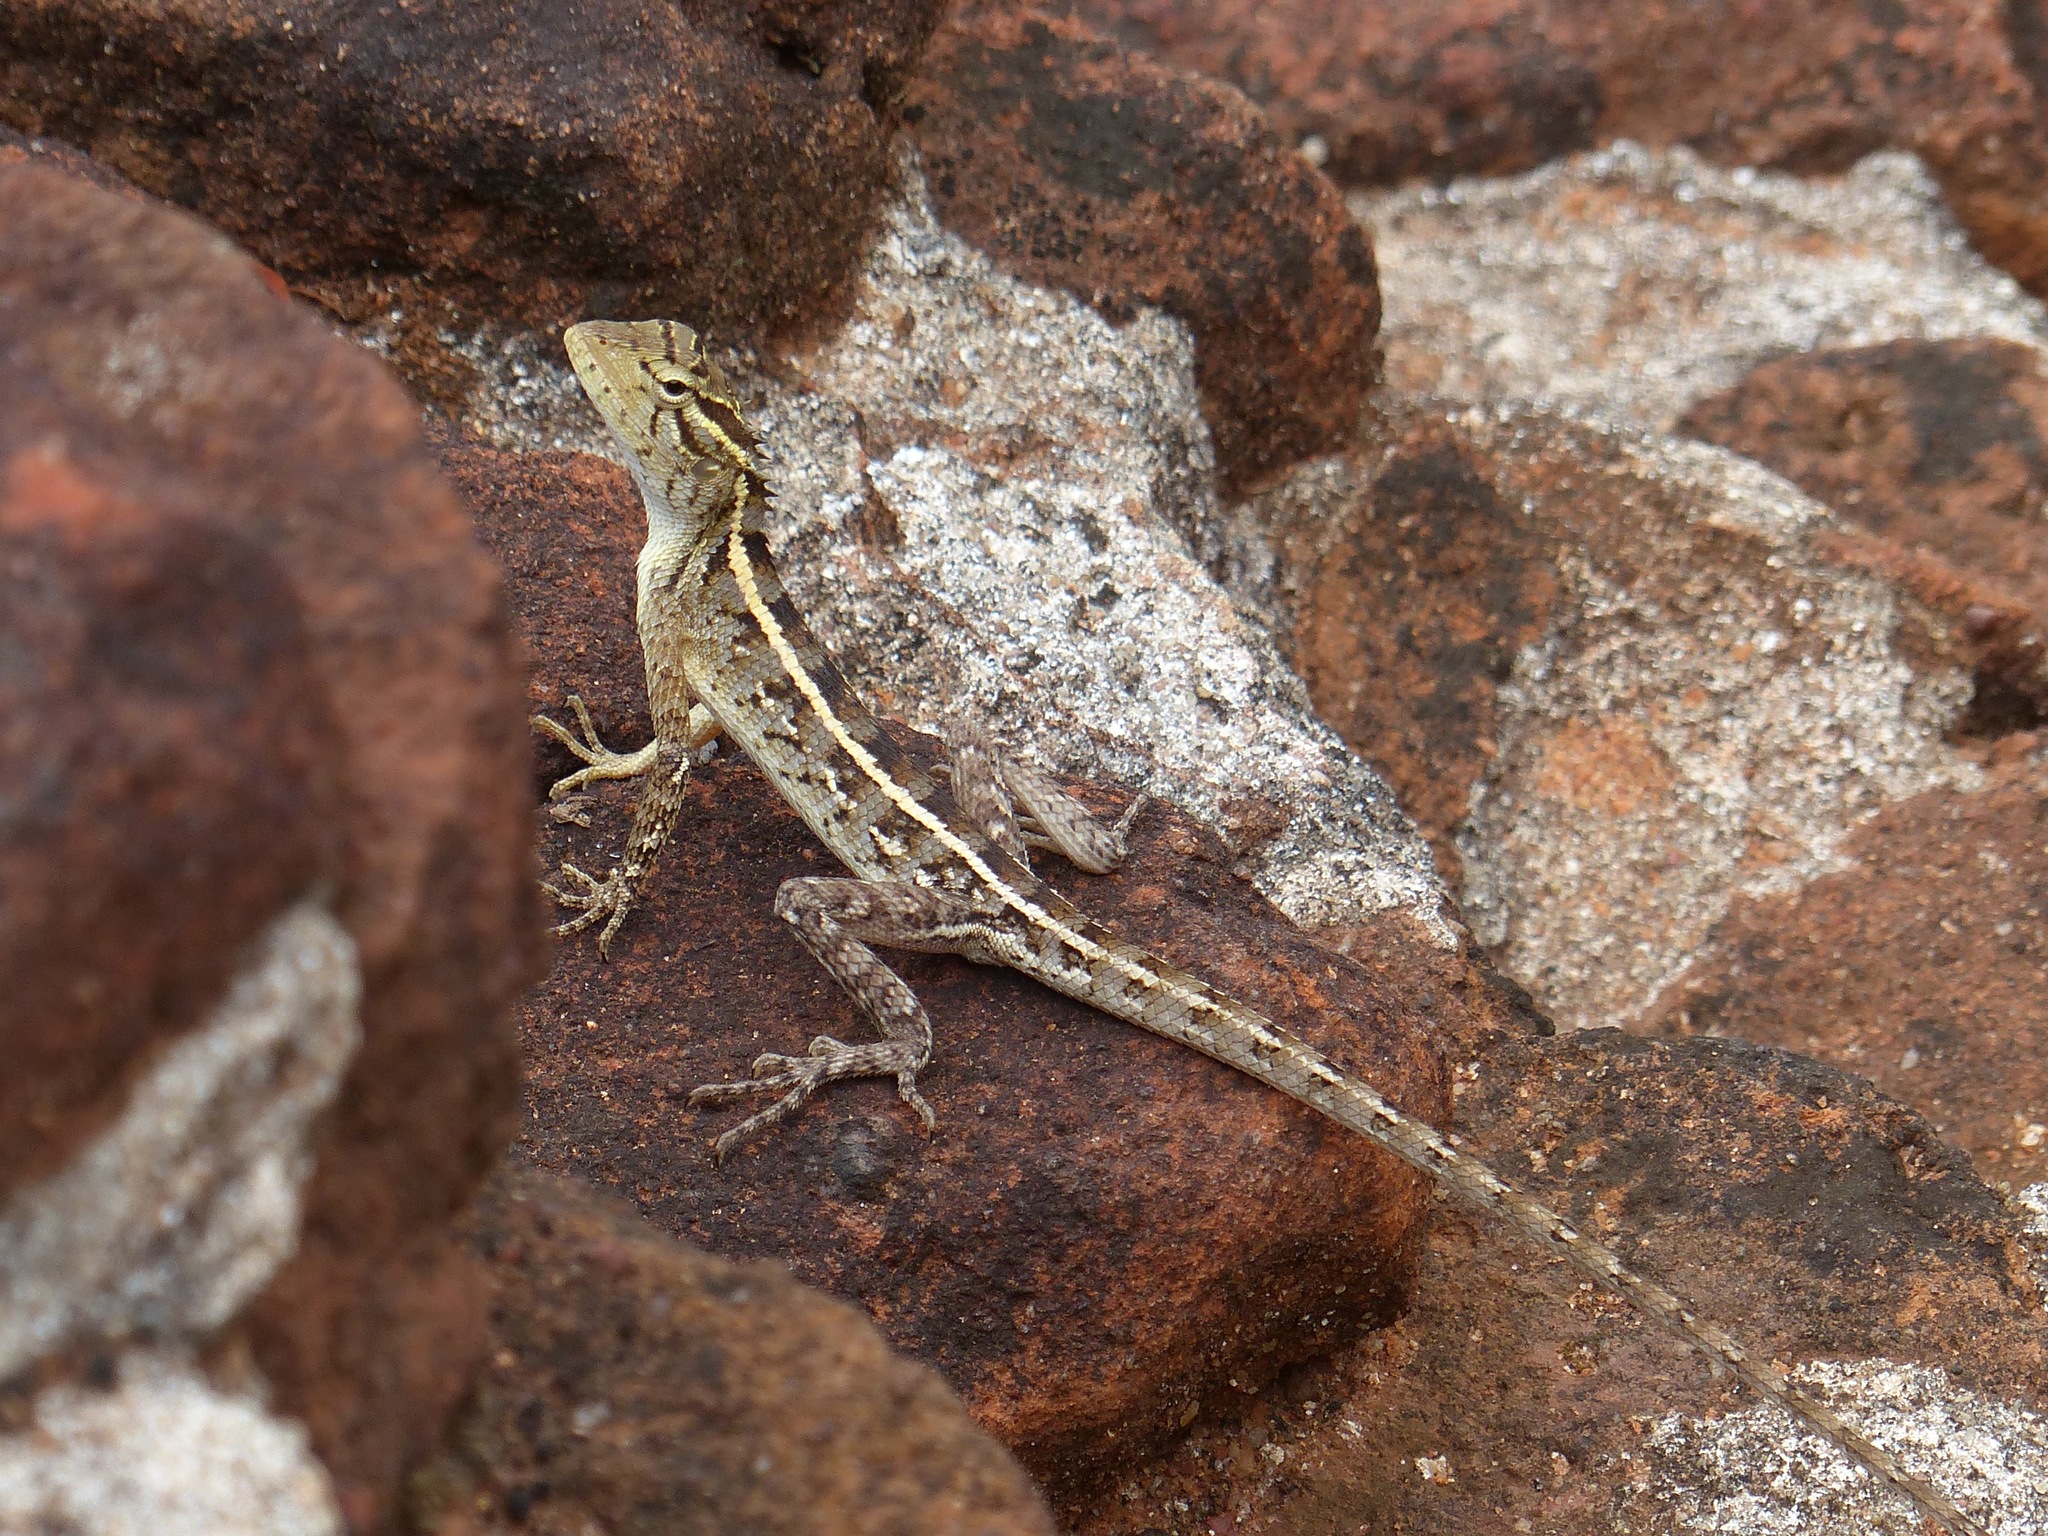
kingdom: Animalia
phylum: Chordata
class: Squamata
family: Agamidae
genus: Calotes
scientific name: Calotes versicolor
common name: Oriental garden lizard
